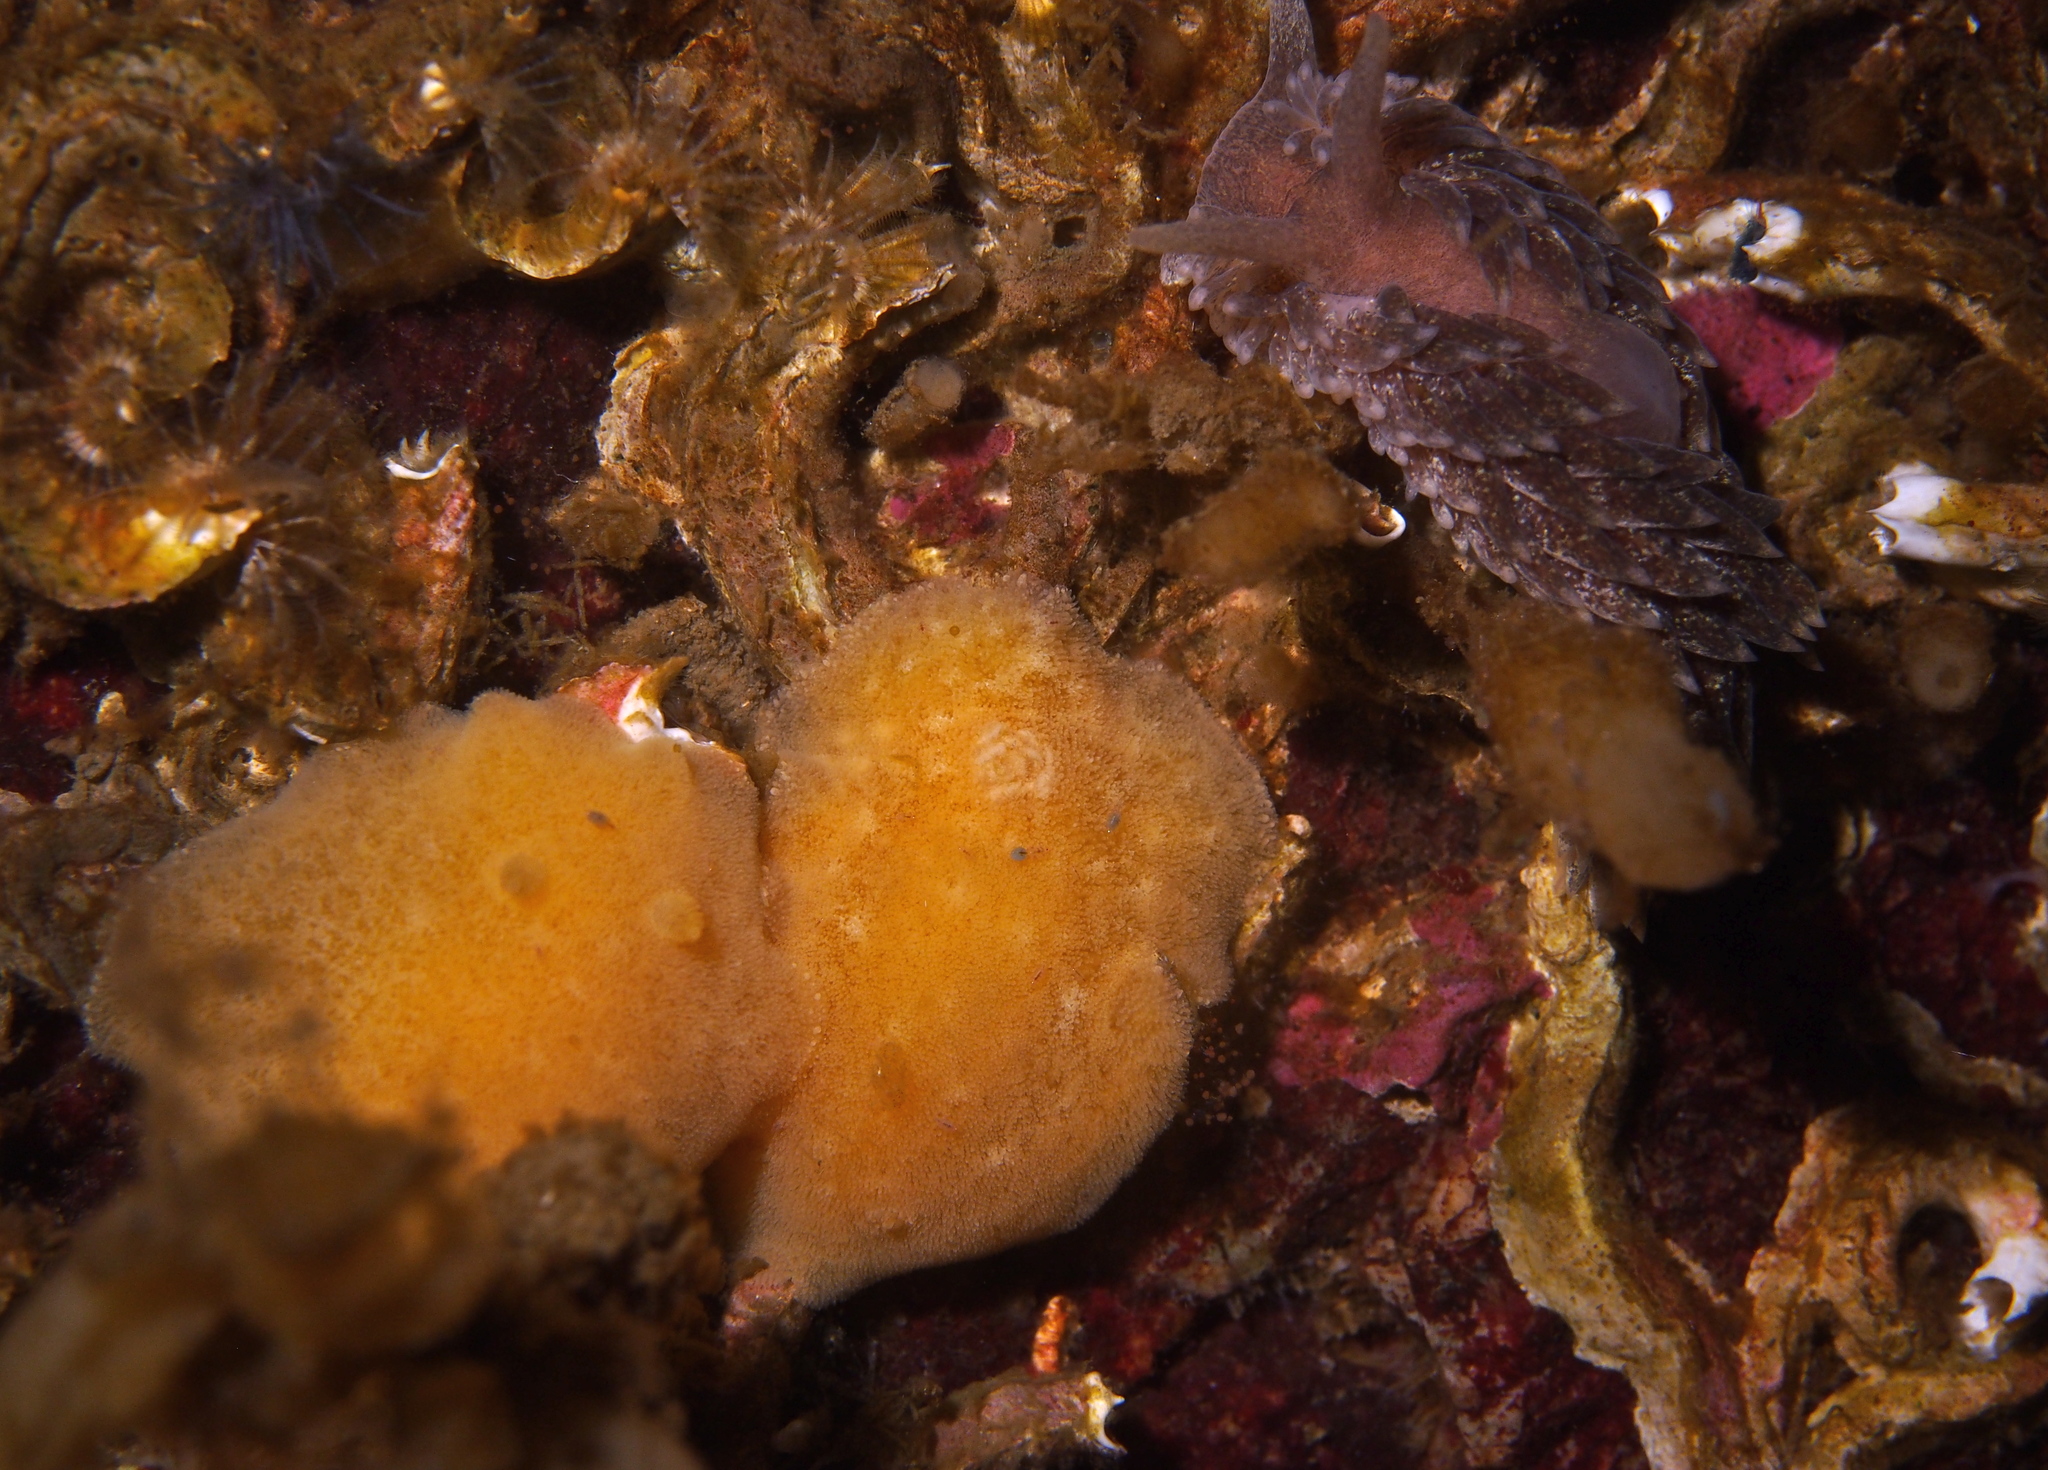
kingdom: Animalia
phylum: Mollusca
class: Gastropoda
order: Nudibranchia
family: Discodorididae
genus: Jorunna
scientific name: Jorunna tomentosa
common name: Grey sea slug
